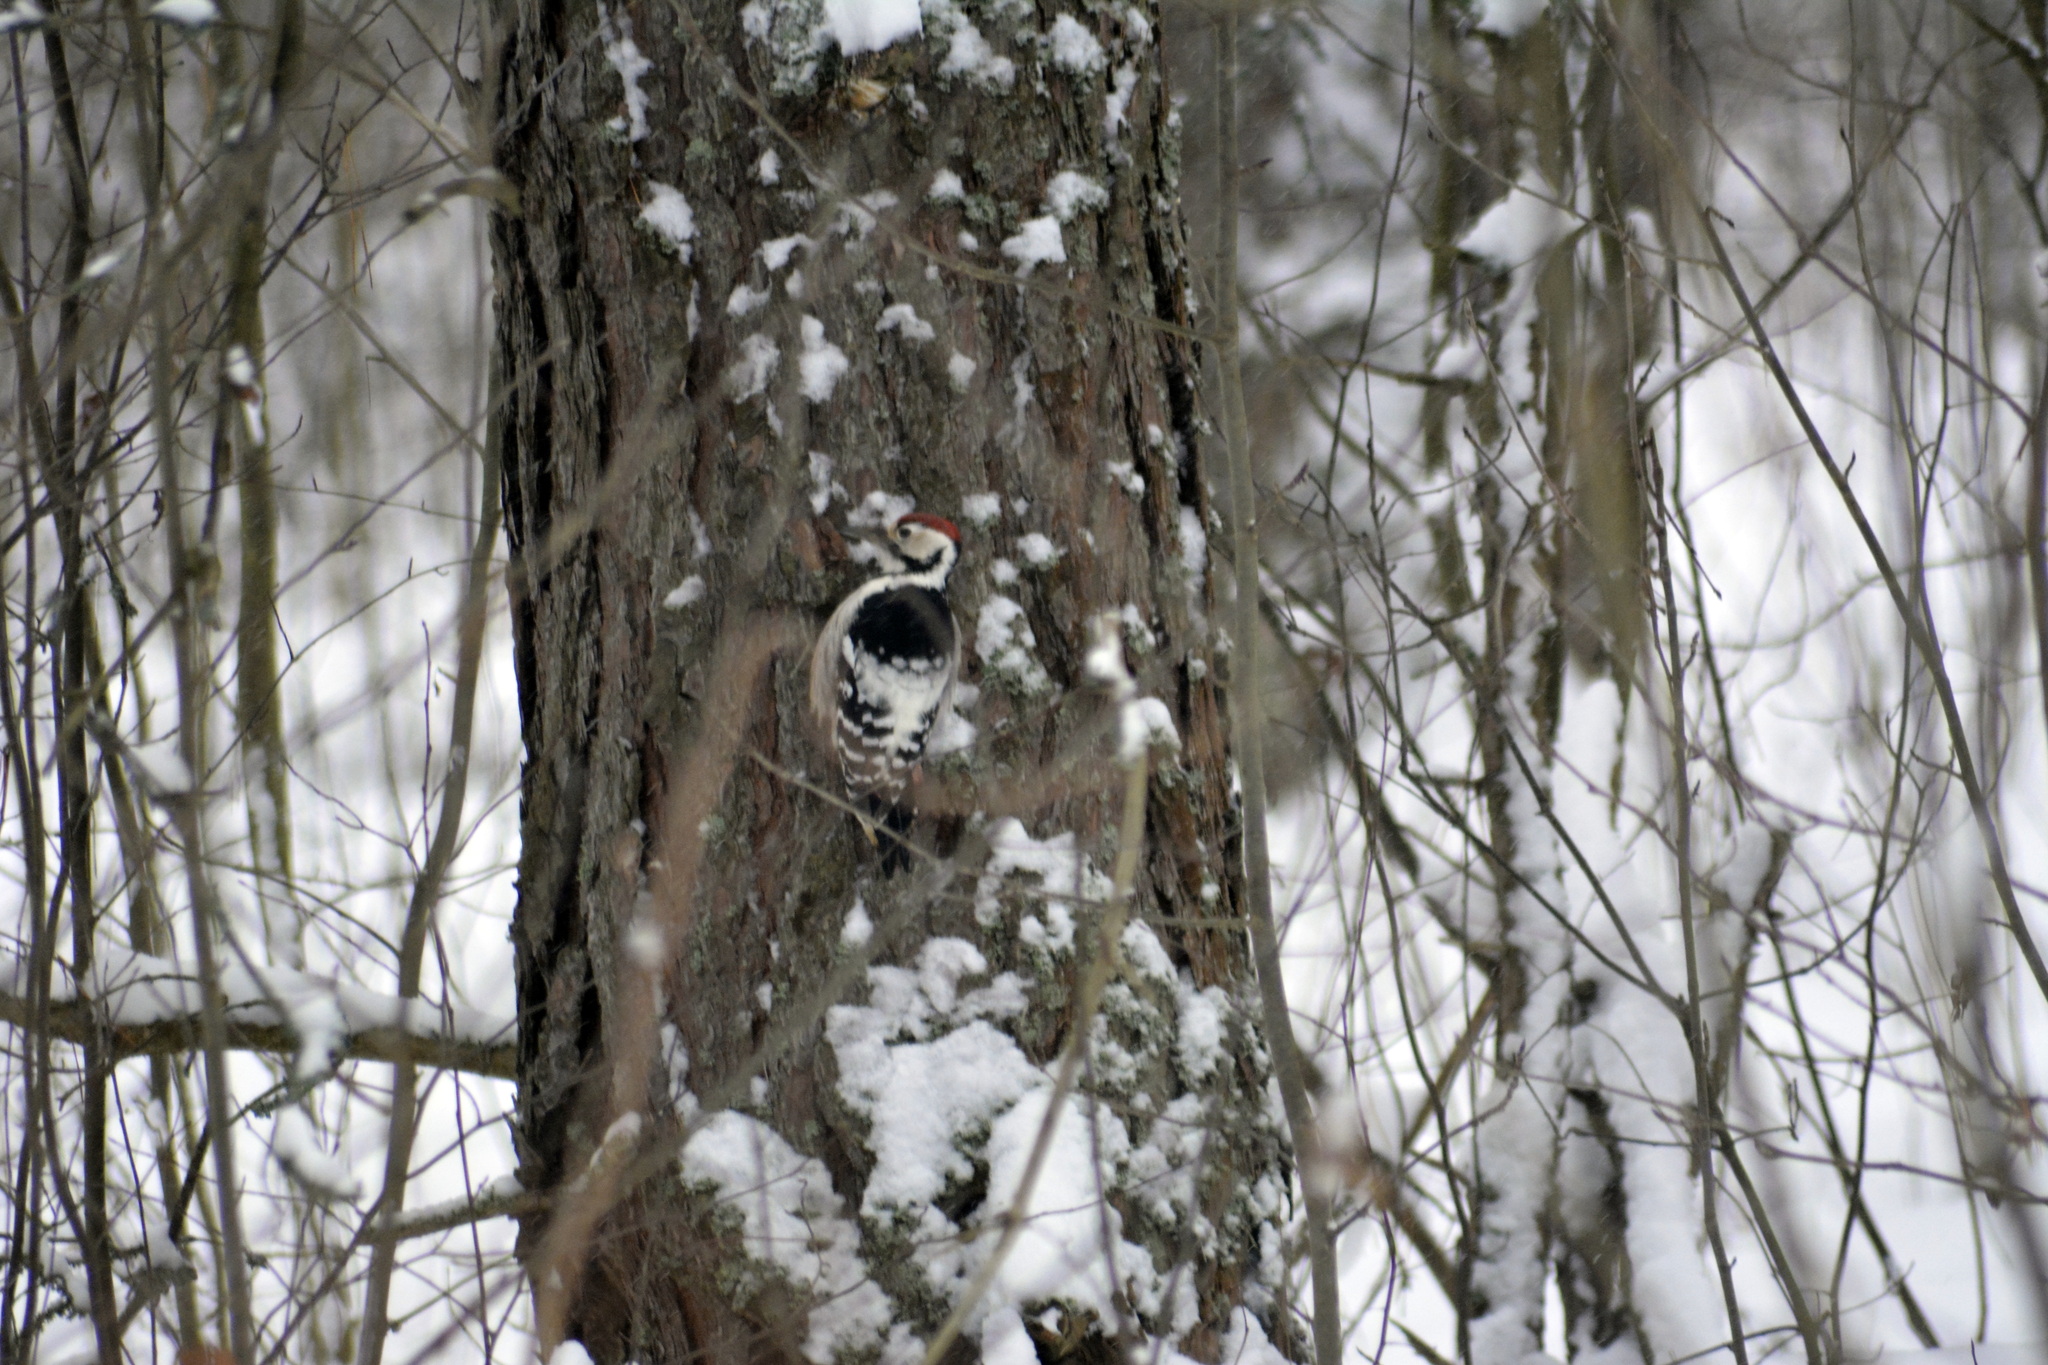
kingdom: Animalia
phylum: Chordata
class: Aves
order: Piciformes
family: Picidae
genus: Dendrocopos
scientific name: Dendrocopos leucotos
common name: White-backed woodpecker
